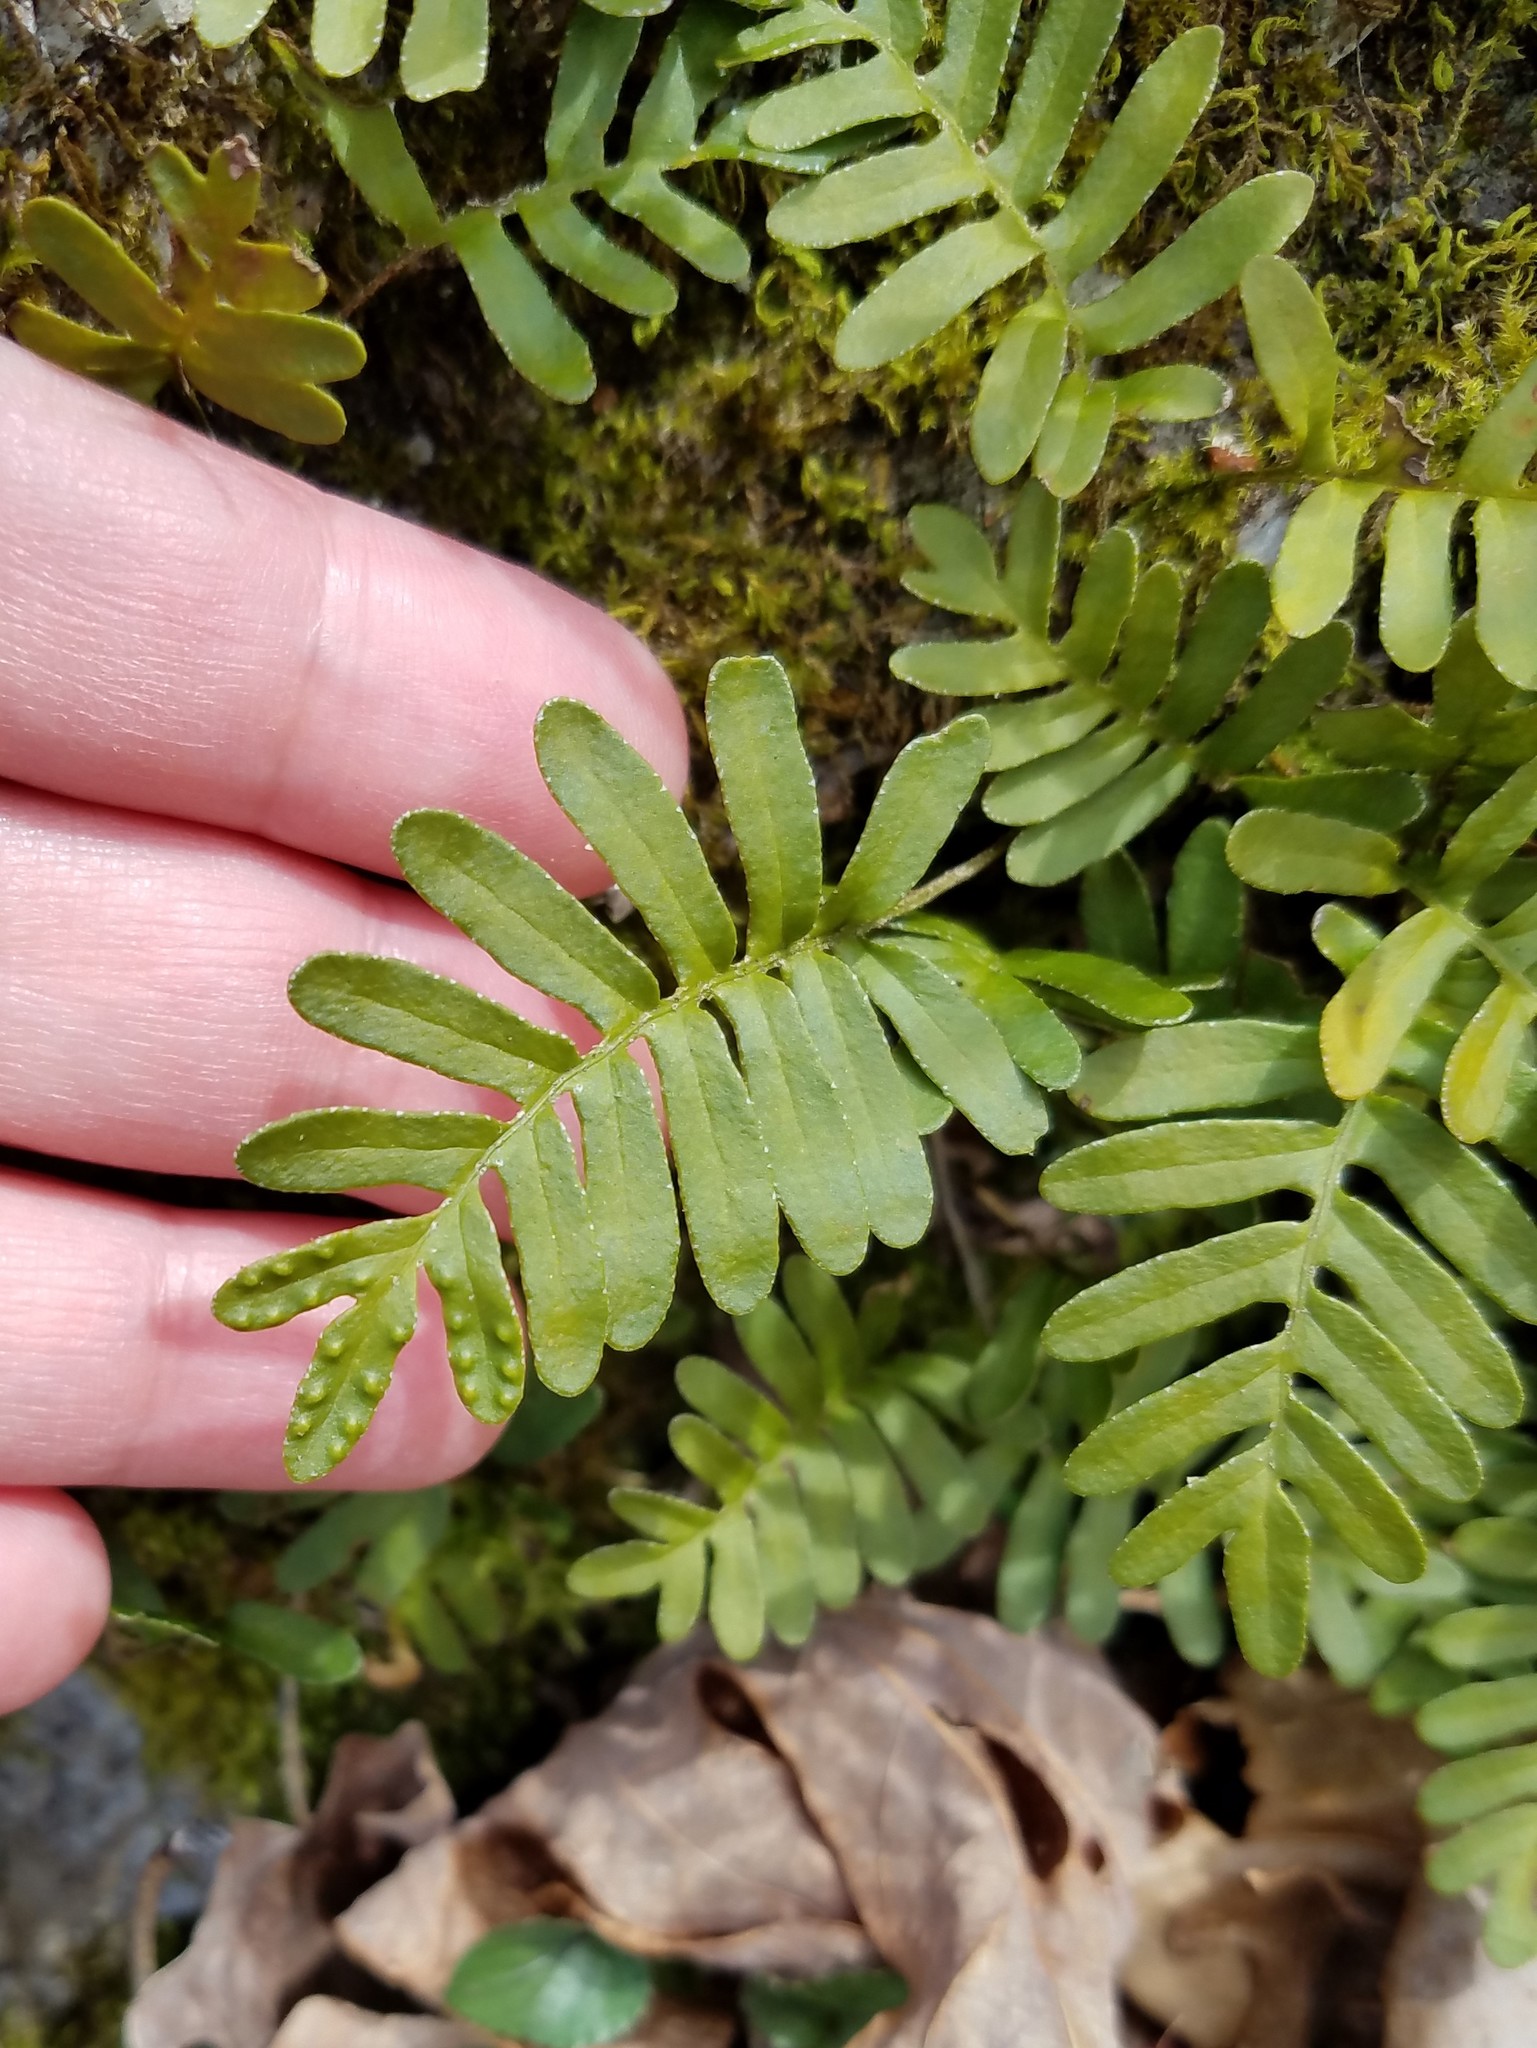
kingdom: Plantae
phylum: Tracheophyta
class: Polypodiopsida
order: Polypodiales
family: Polypodiaceae
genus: Pleopeltis
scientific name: Pleopeltis michauxiana
